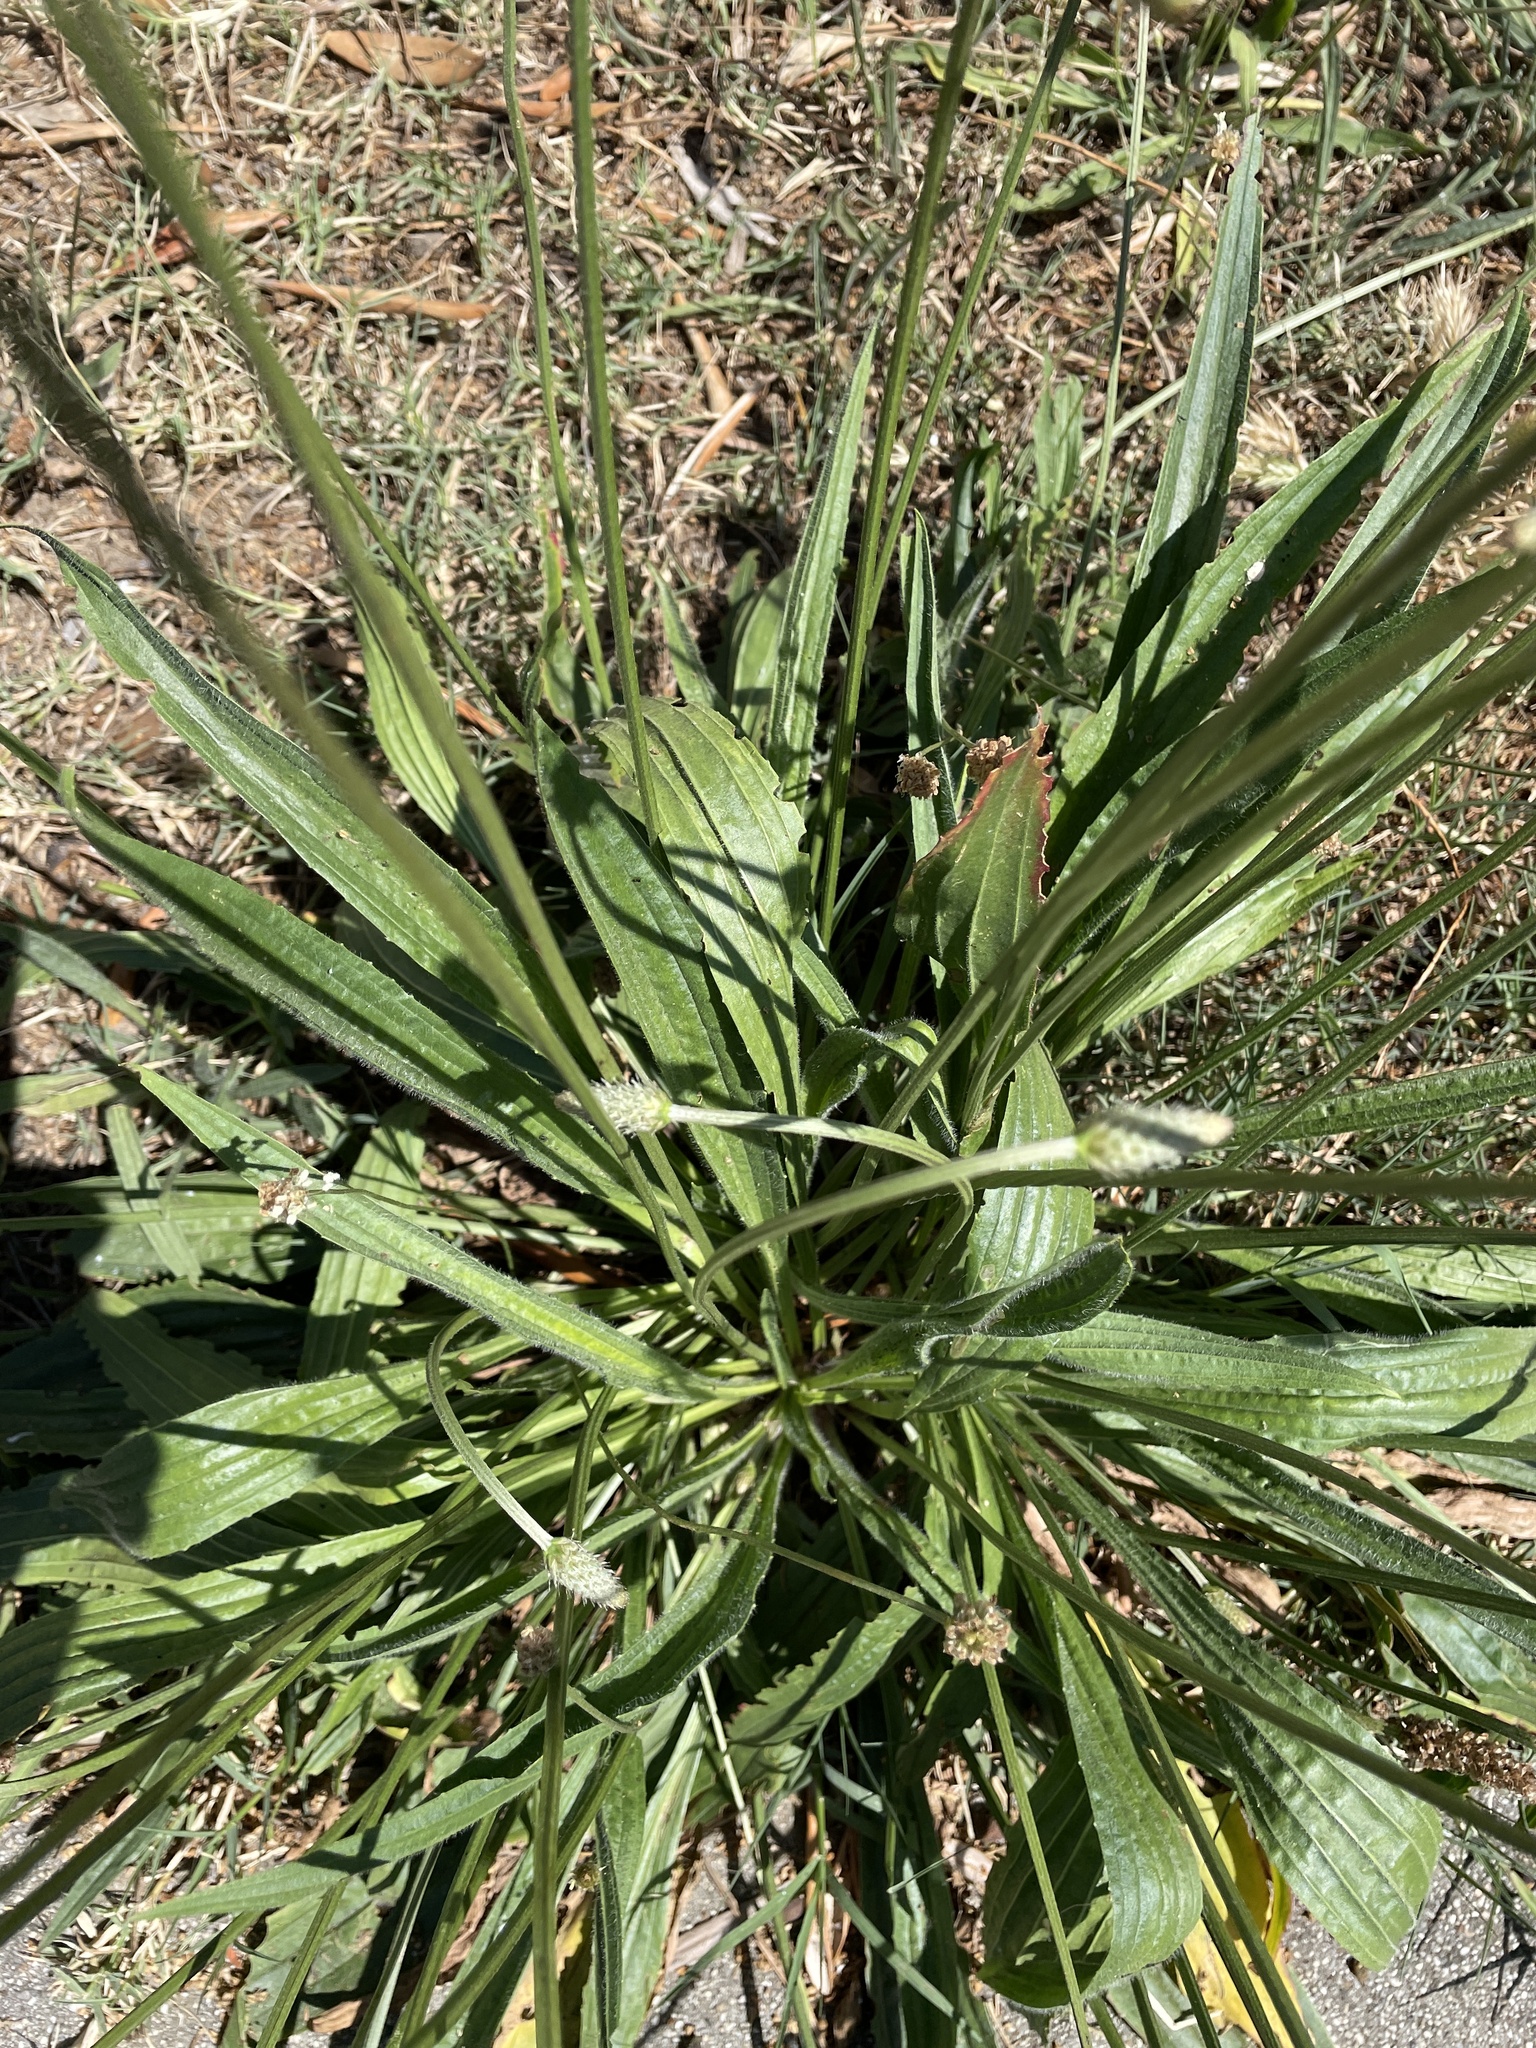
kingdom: Plantae
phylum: Tracheophyta
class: Magnoliopsida
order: Lamiales
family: Plantaginaceae
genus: Plantago
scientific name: Plantago lanceolata
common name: Ribwort plantain
